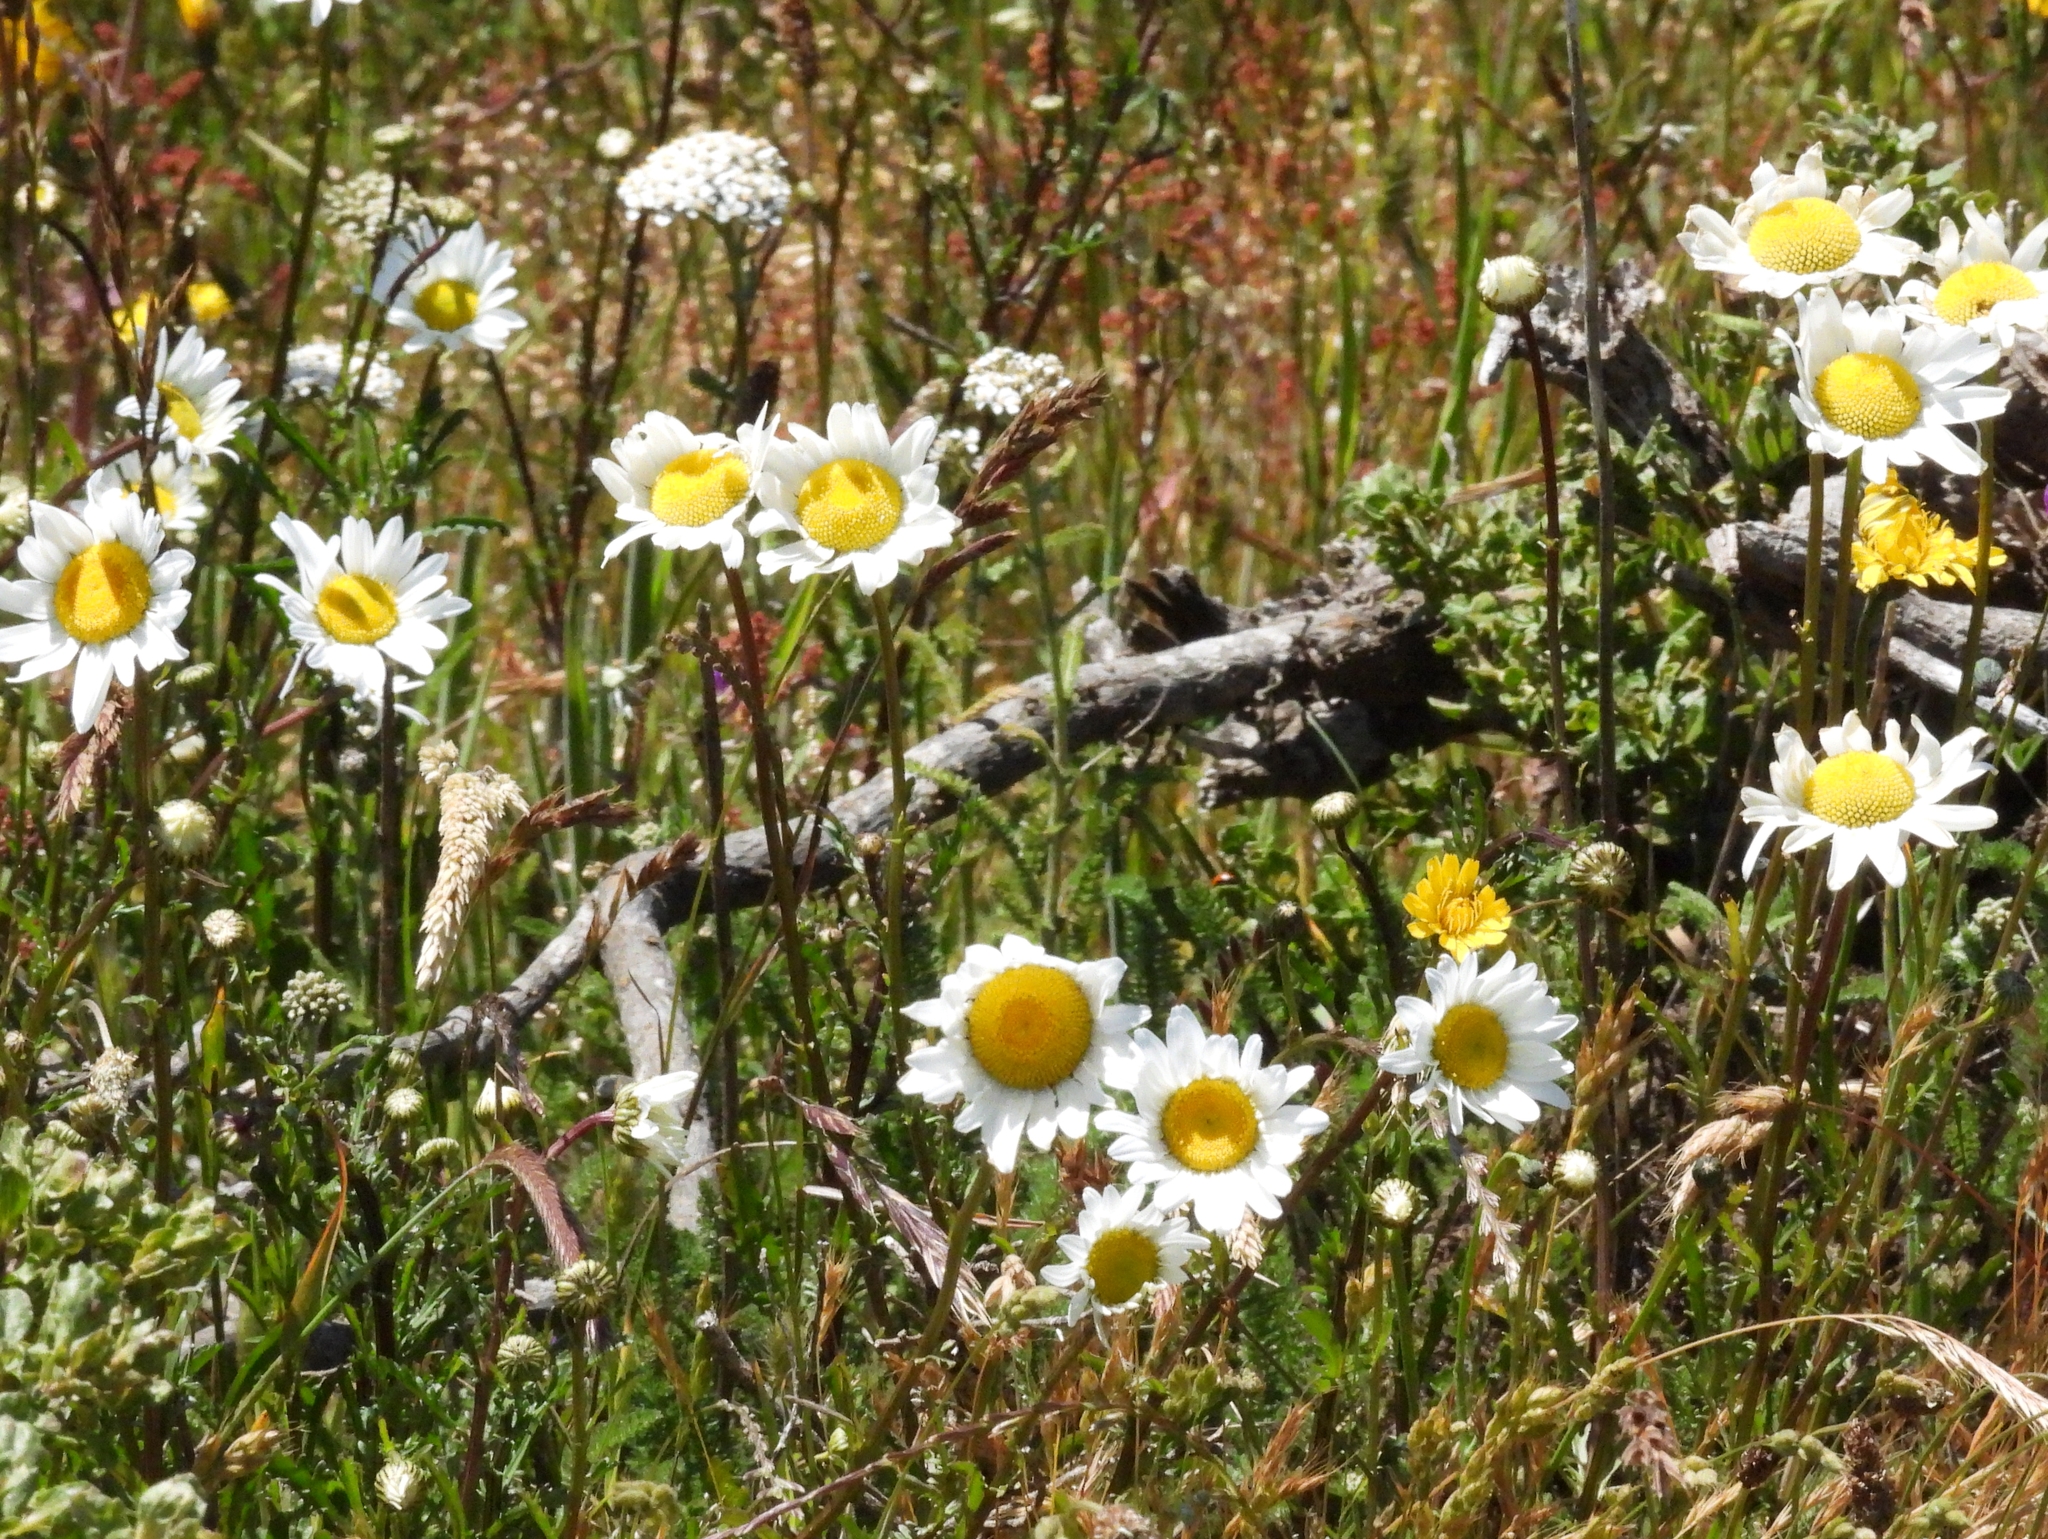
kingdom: Plantae
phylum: Tracheophyta
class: Magnoliopsida
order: Asterales
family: Asteraceae
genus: Leucanthemum
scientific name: Leucanthemum vulgare
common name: Oxeye daisy
